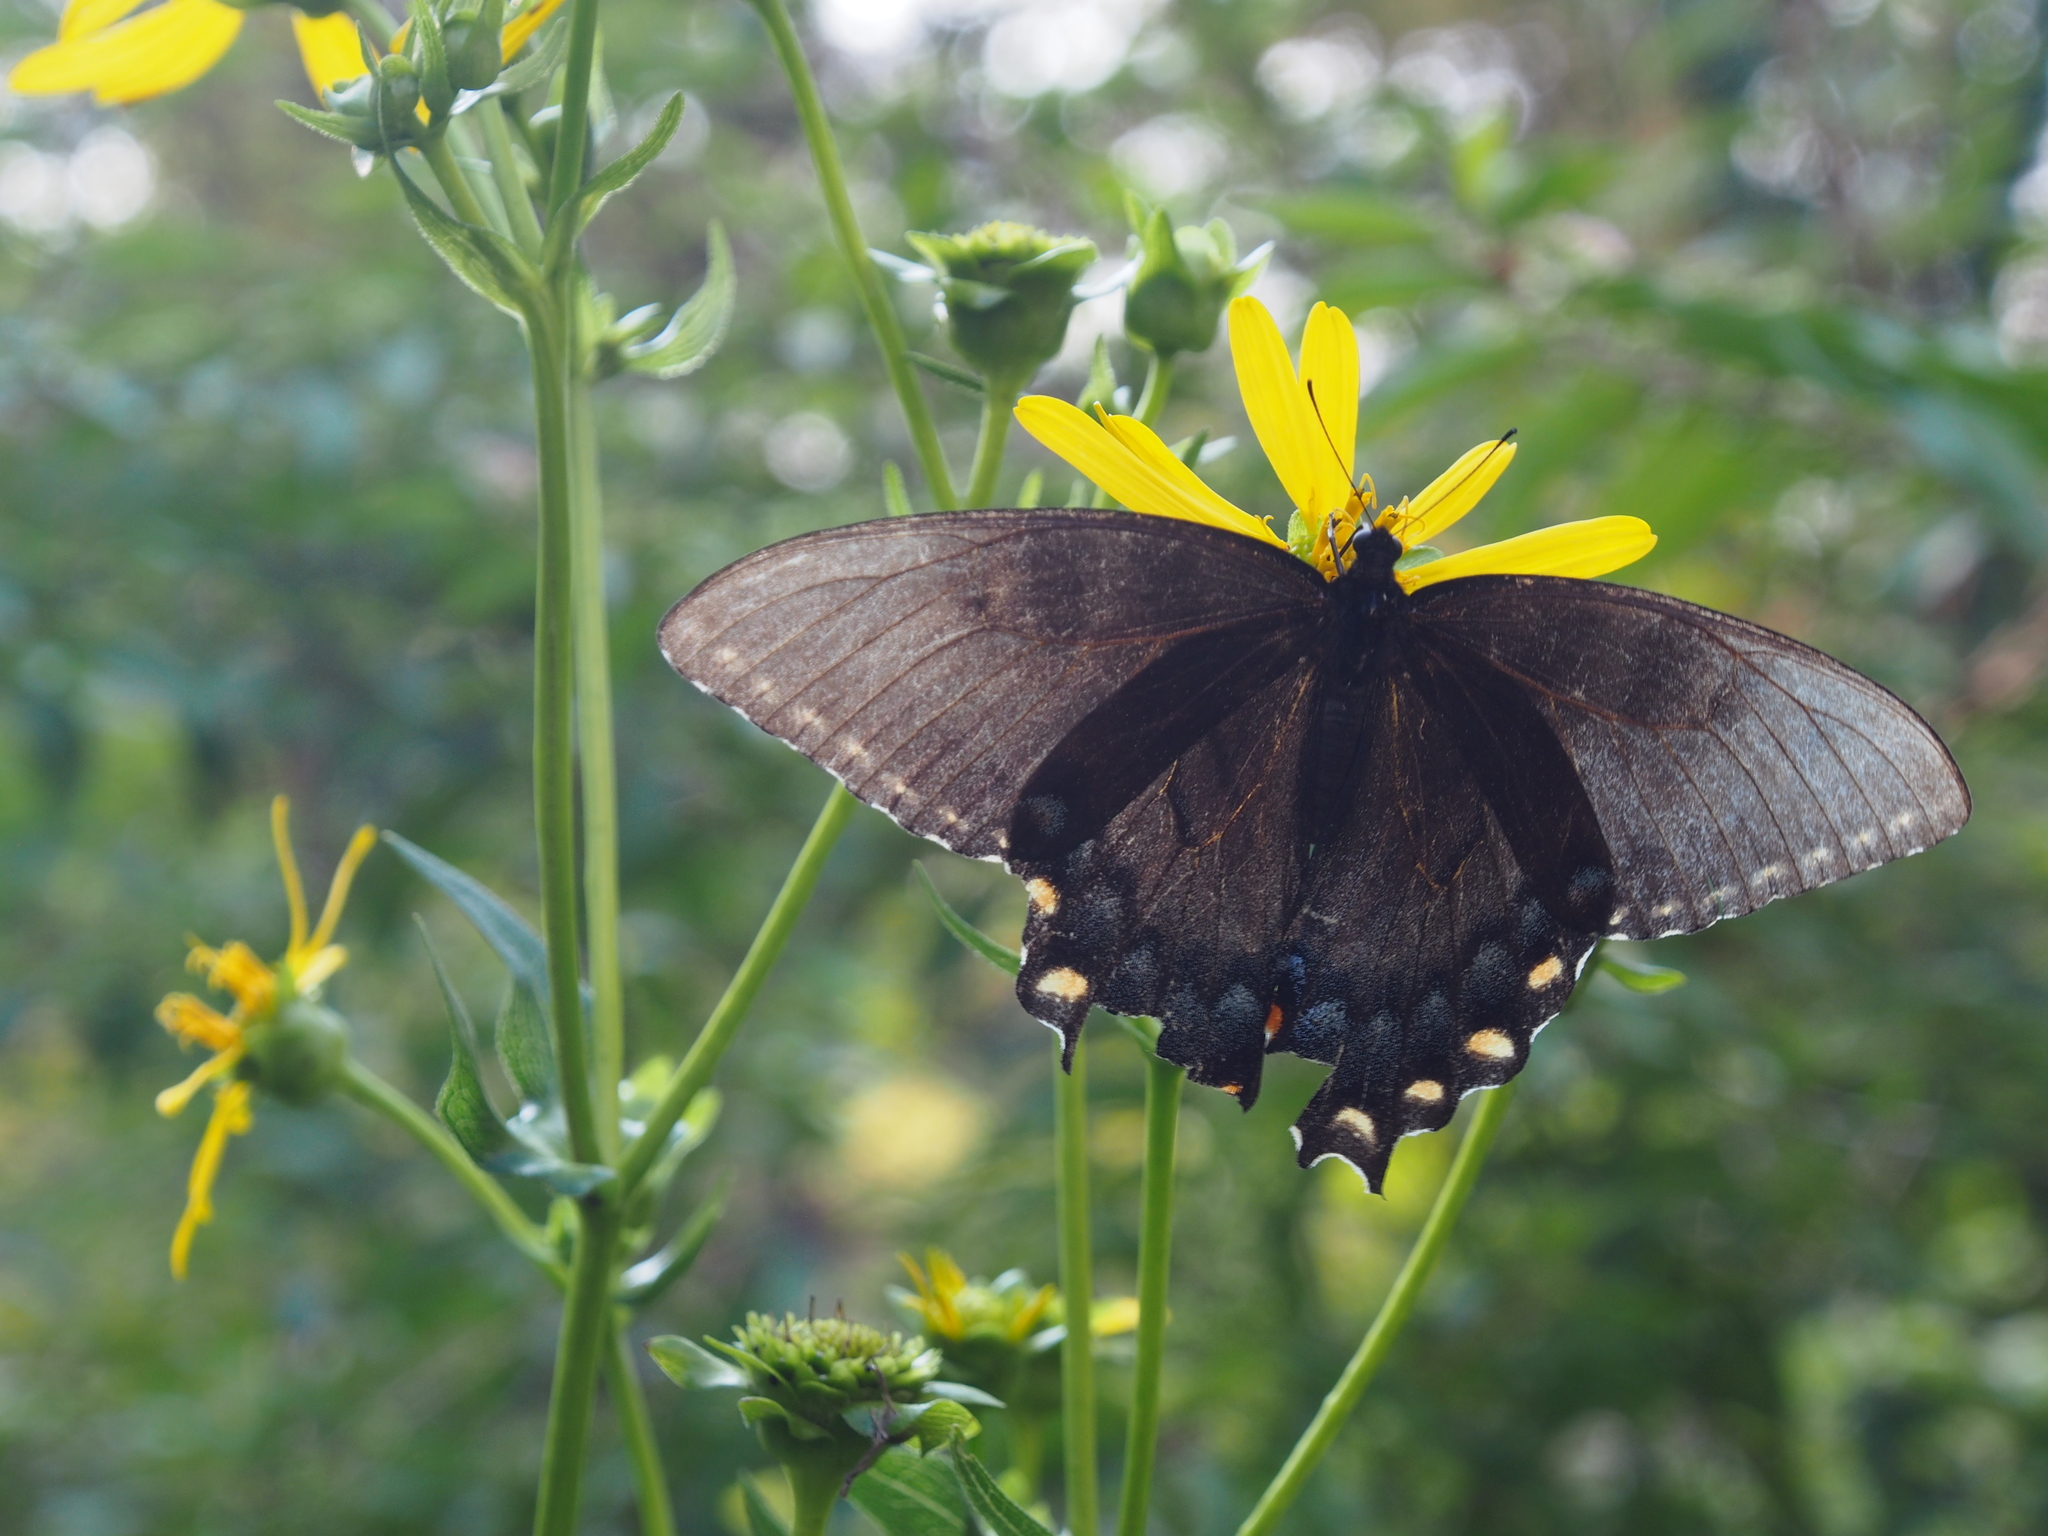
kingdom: Animalia
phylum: Arthropoda
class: Insecta
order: Lepidoptera
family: Papilionidae
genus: Papilio
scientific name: Papilio glaucus
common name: Tiger swallowtail
